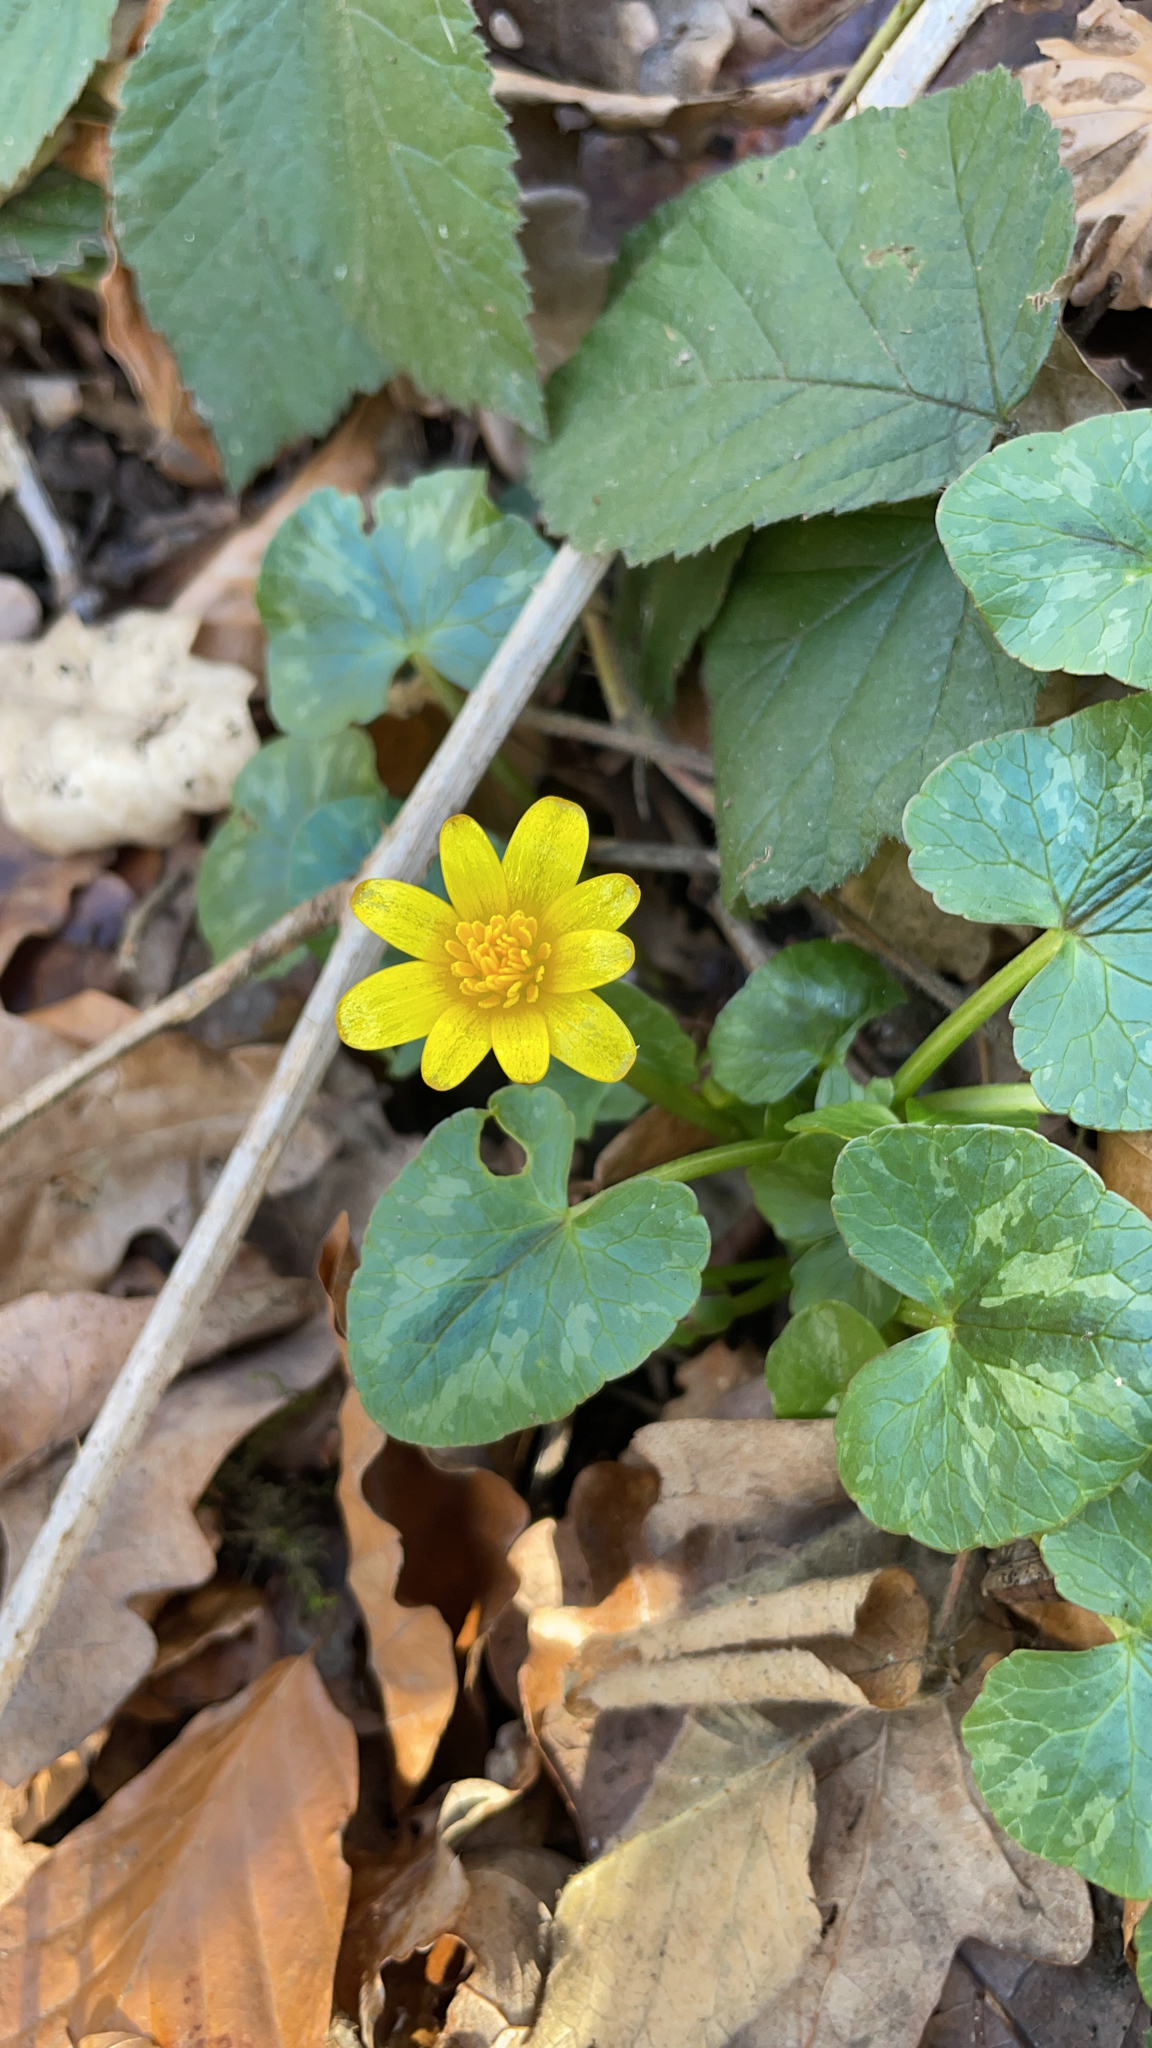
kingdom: Plantae
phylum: Tracheophyta
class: Magnoliopsida
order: Ranunculales
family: Ranunculaceae
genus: Ficaria
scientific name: Ficaria verna
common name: Lesser celandine
